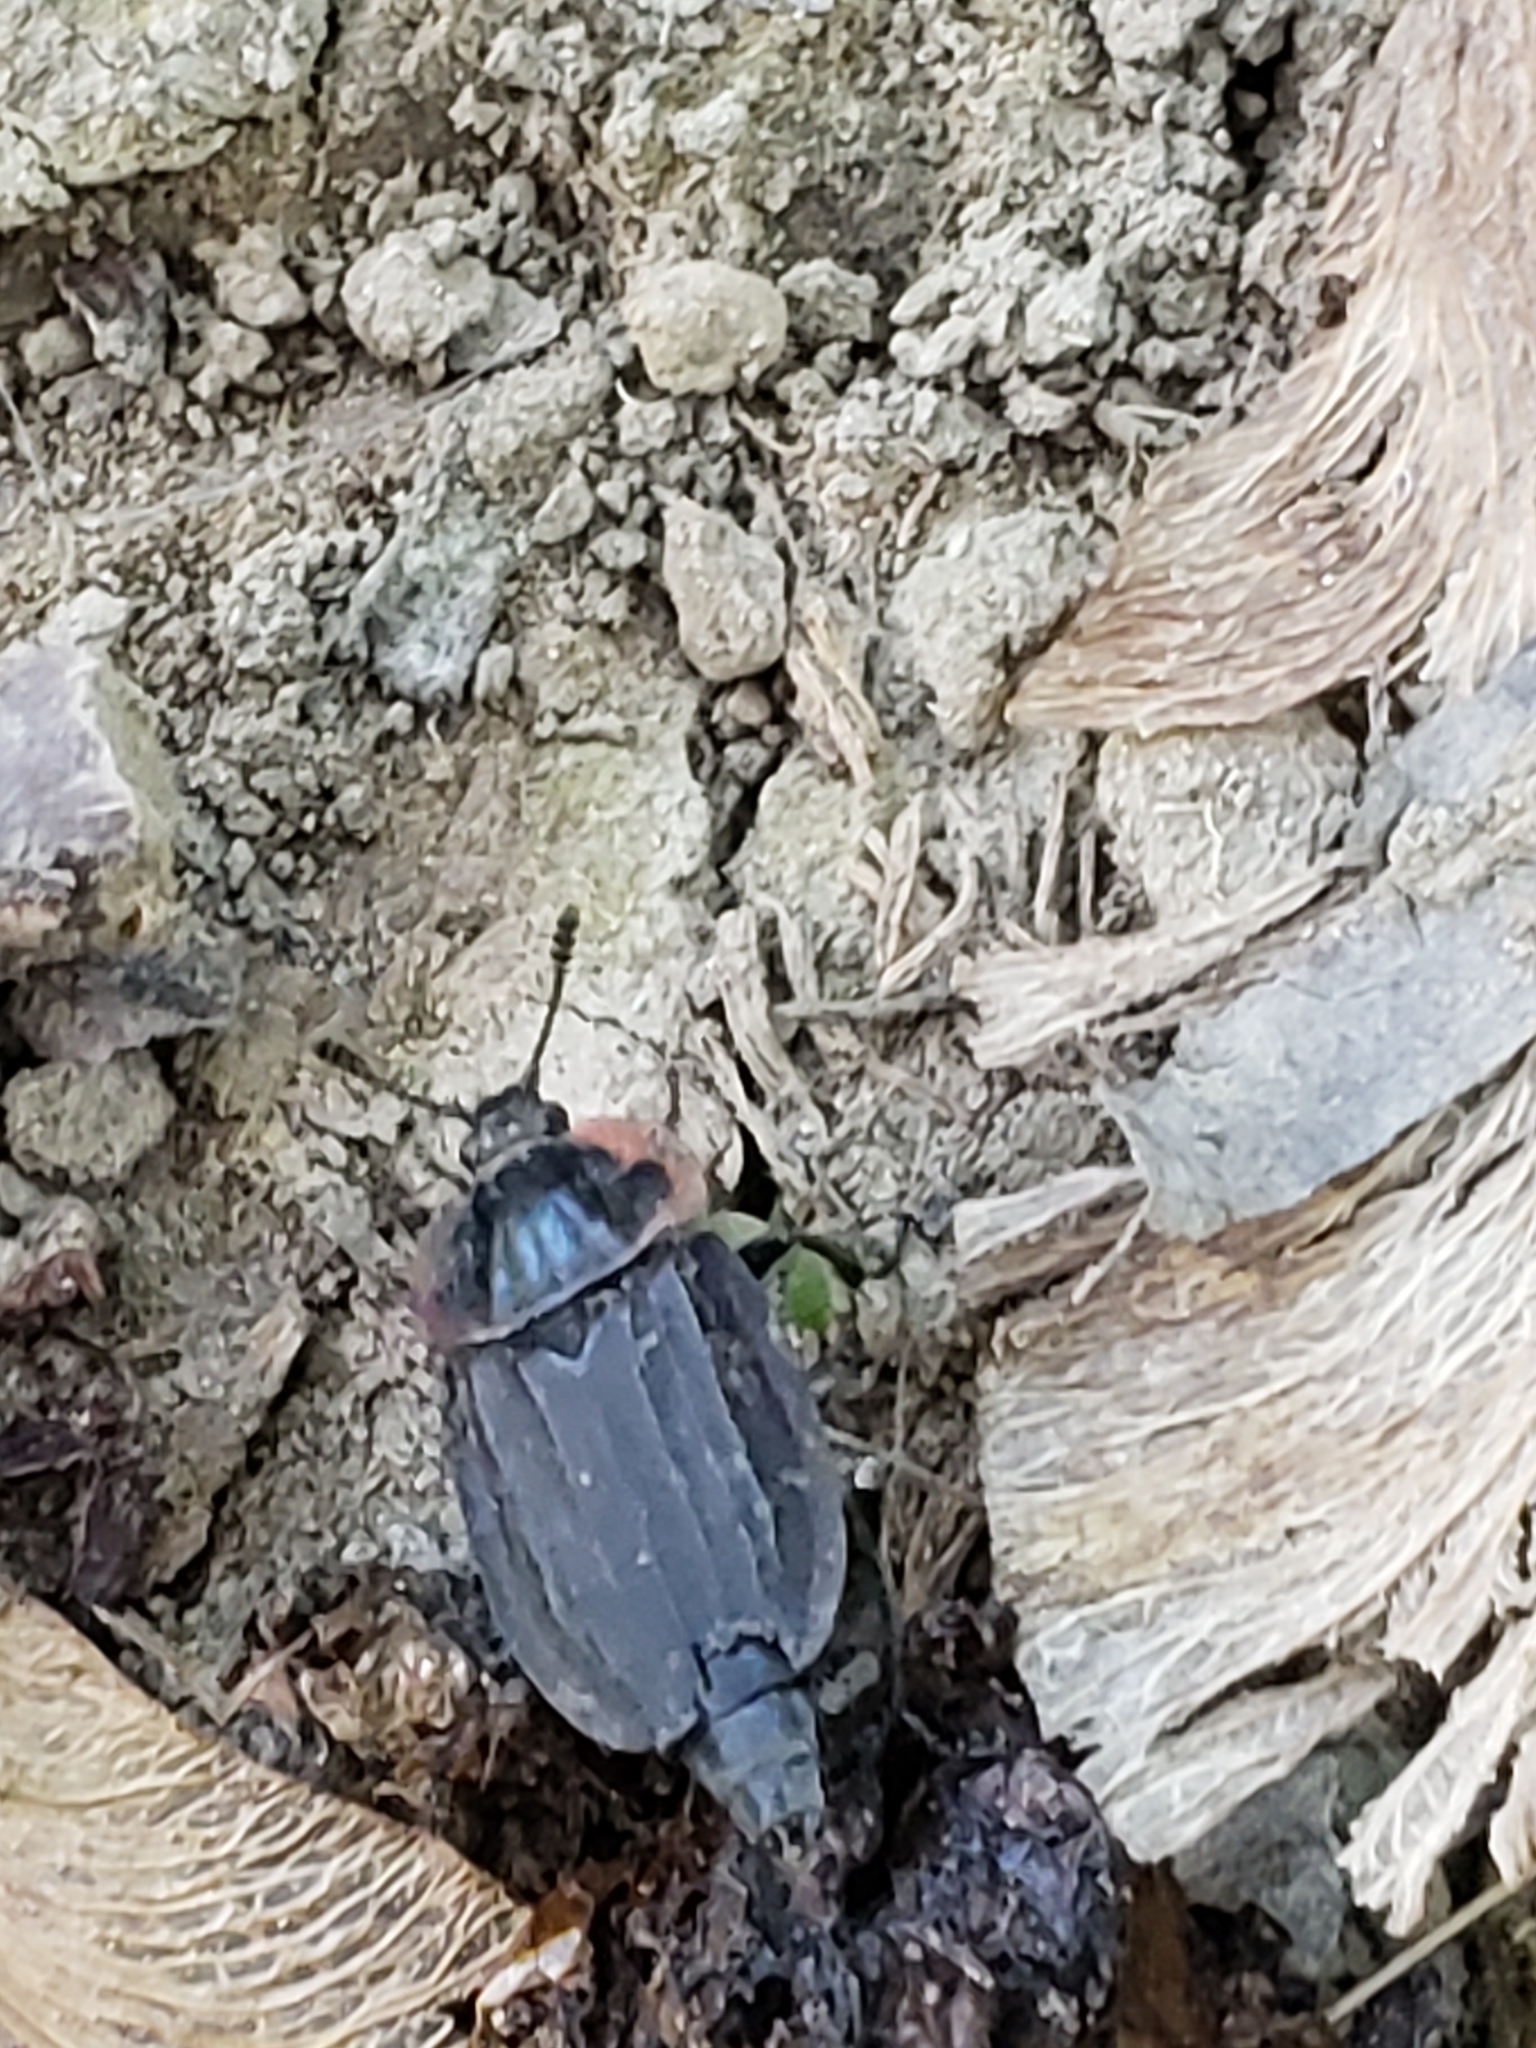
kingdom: Animalia
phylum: Arthropoda
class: Insecta
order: Coleoptera
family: Staphylinidae
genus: Oiceoptoma
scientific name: Oiceoptoma noveboracense
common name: Margined carrion beetle
